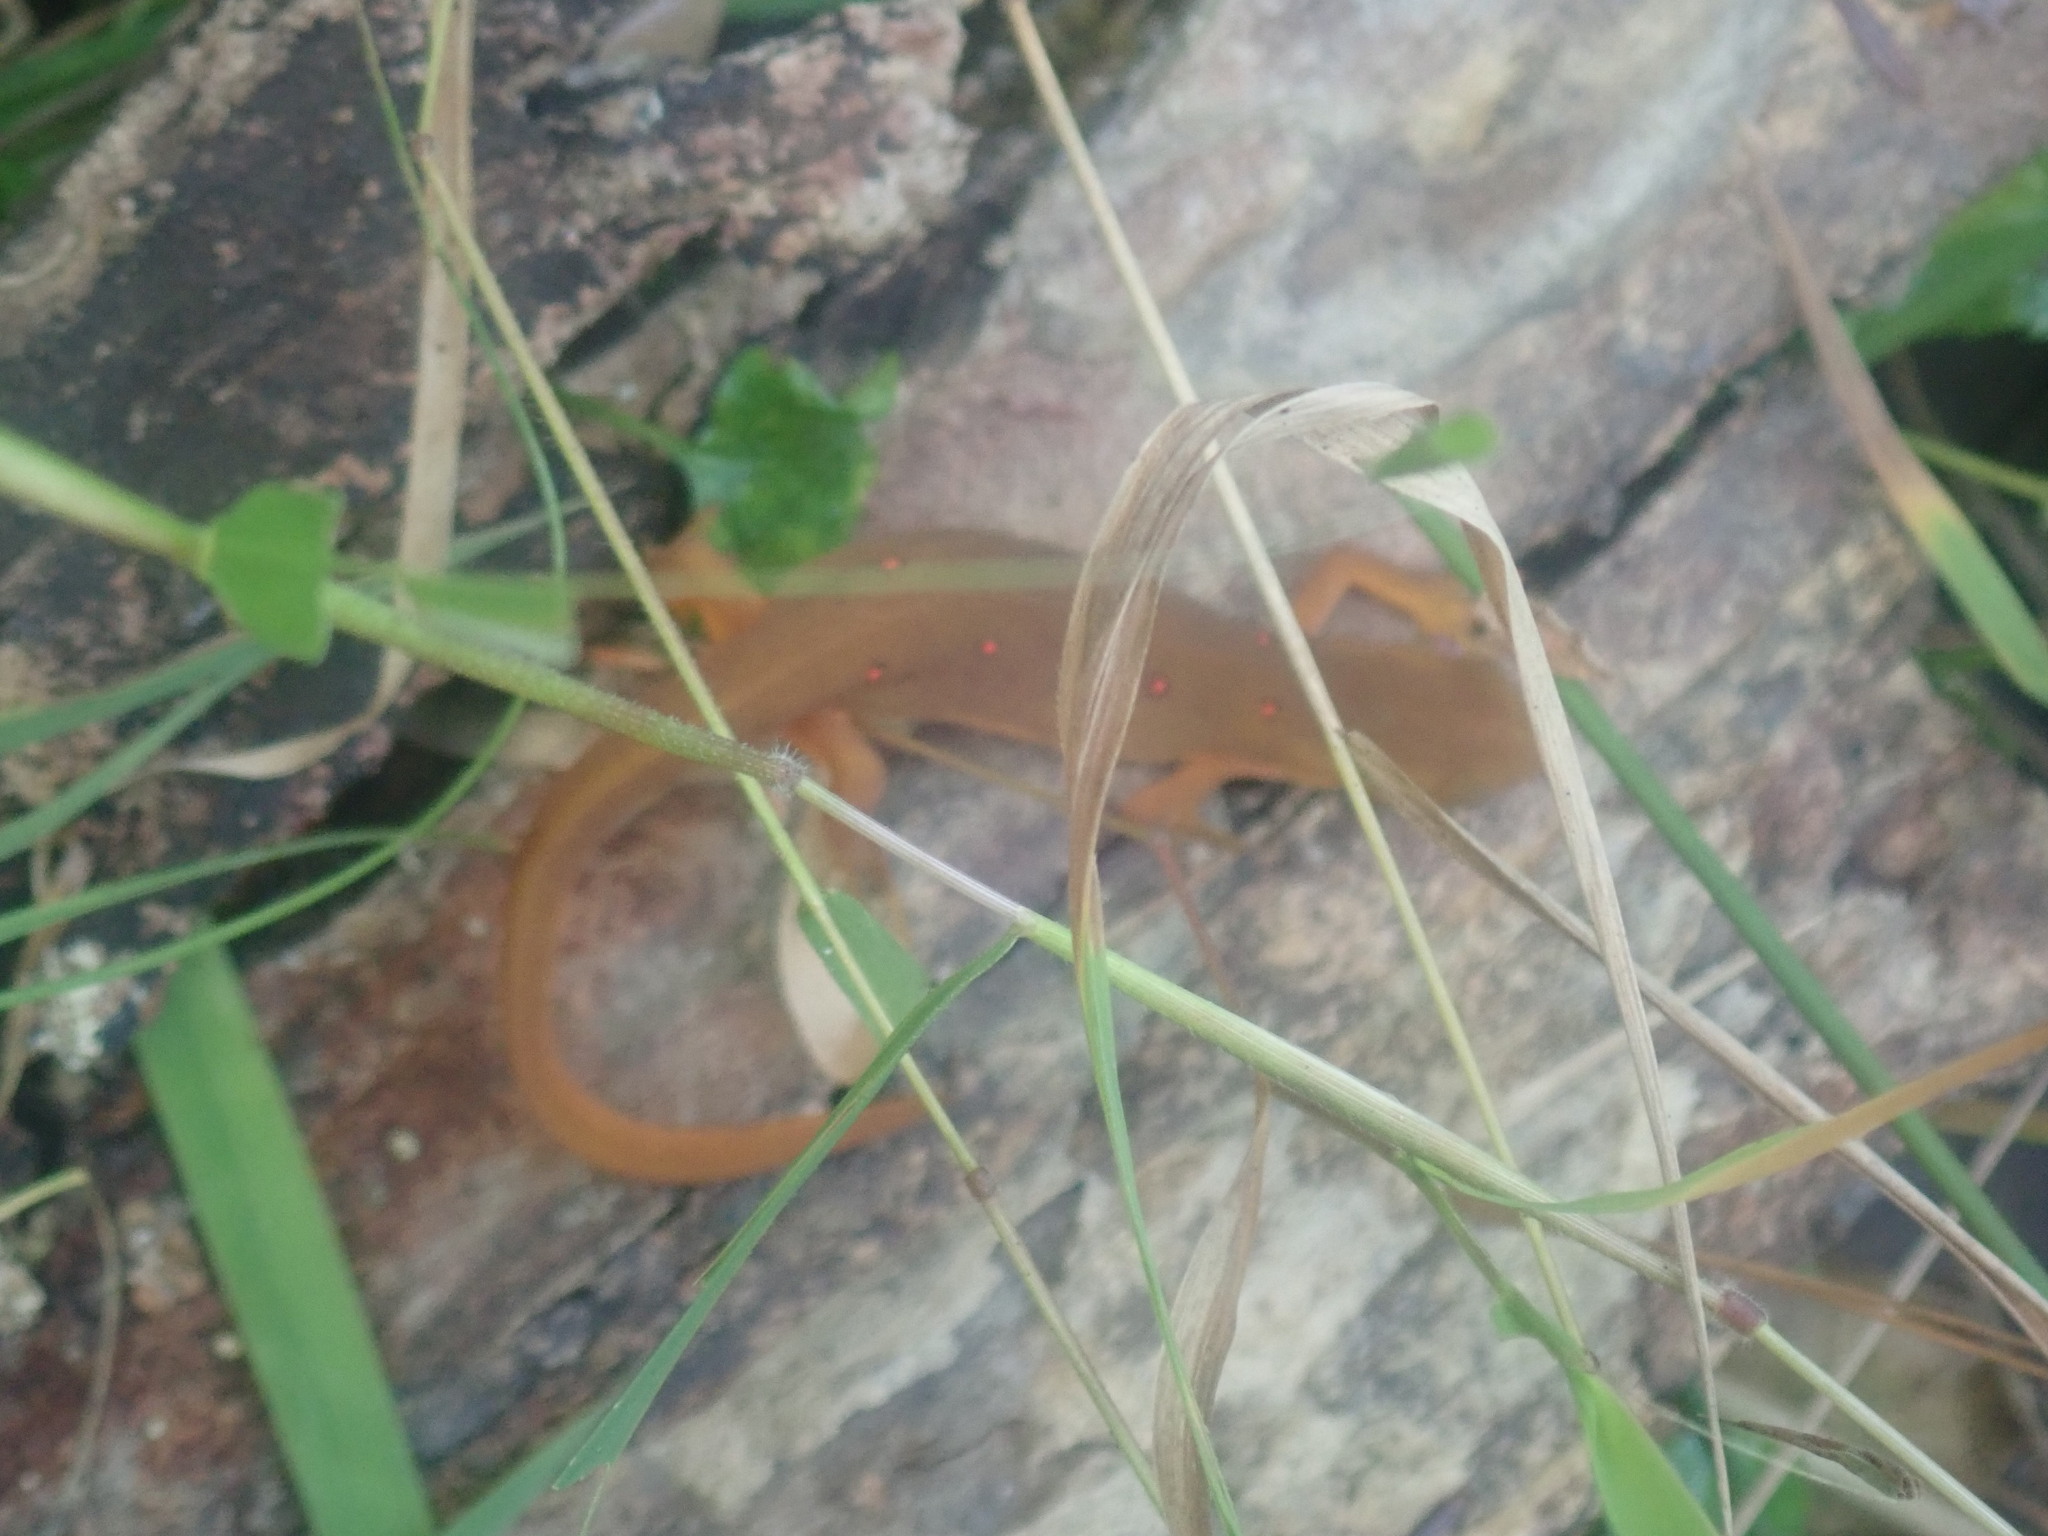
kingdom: Animalia
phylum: Chordata
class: Amphibia
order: Caudata
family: Salamandridae
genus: Notophthalmus
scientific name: Notophthalmus viridescens
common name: Eastern newt
